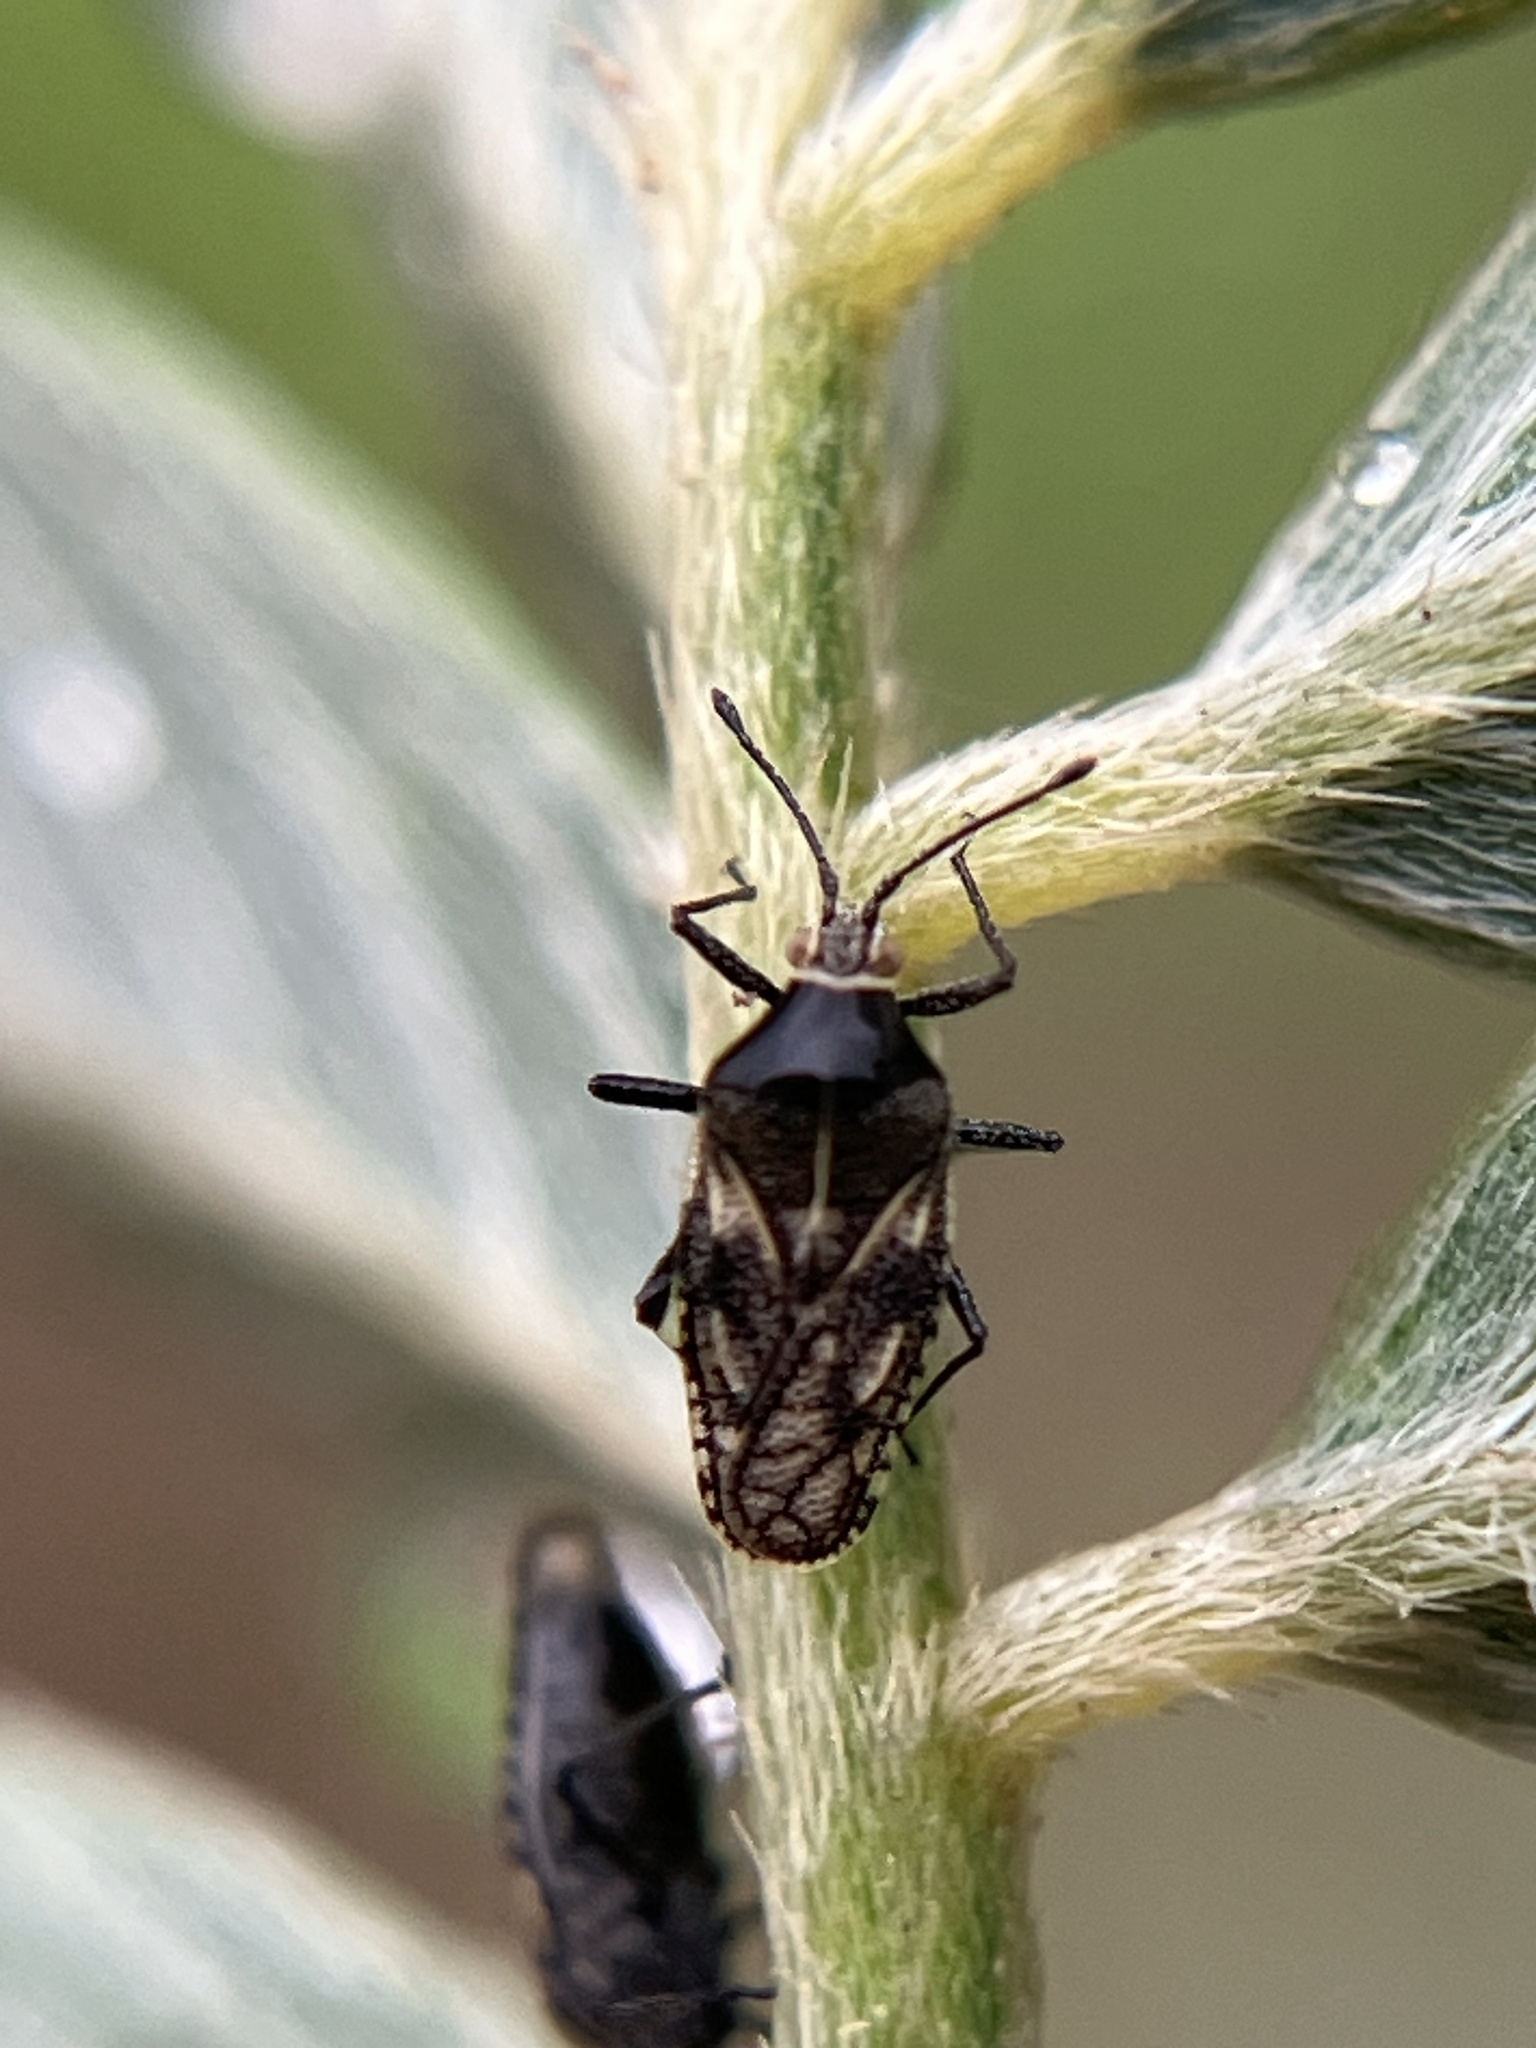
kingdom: Animalia
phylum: Arthropoda
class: Insecta
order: Hemiptera
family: Tingidae
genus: Phaenotropis
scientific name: Phaenotropis cleopatra
